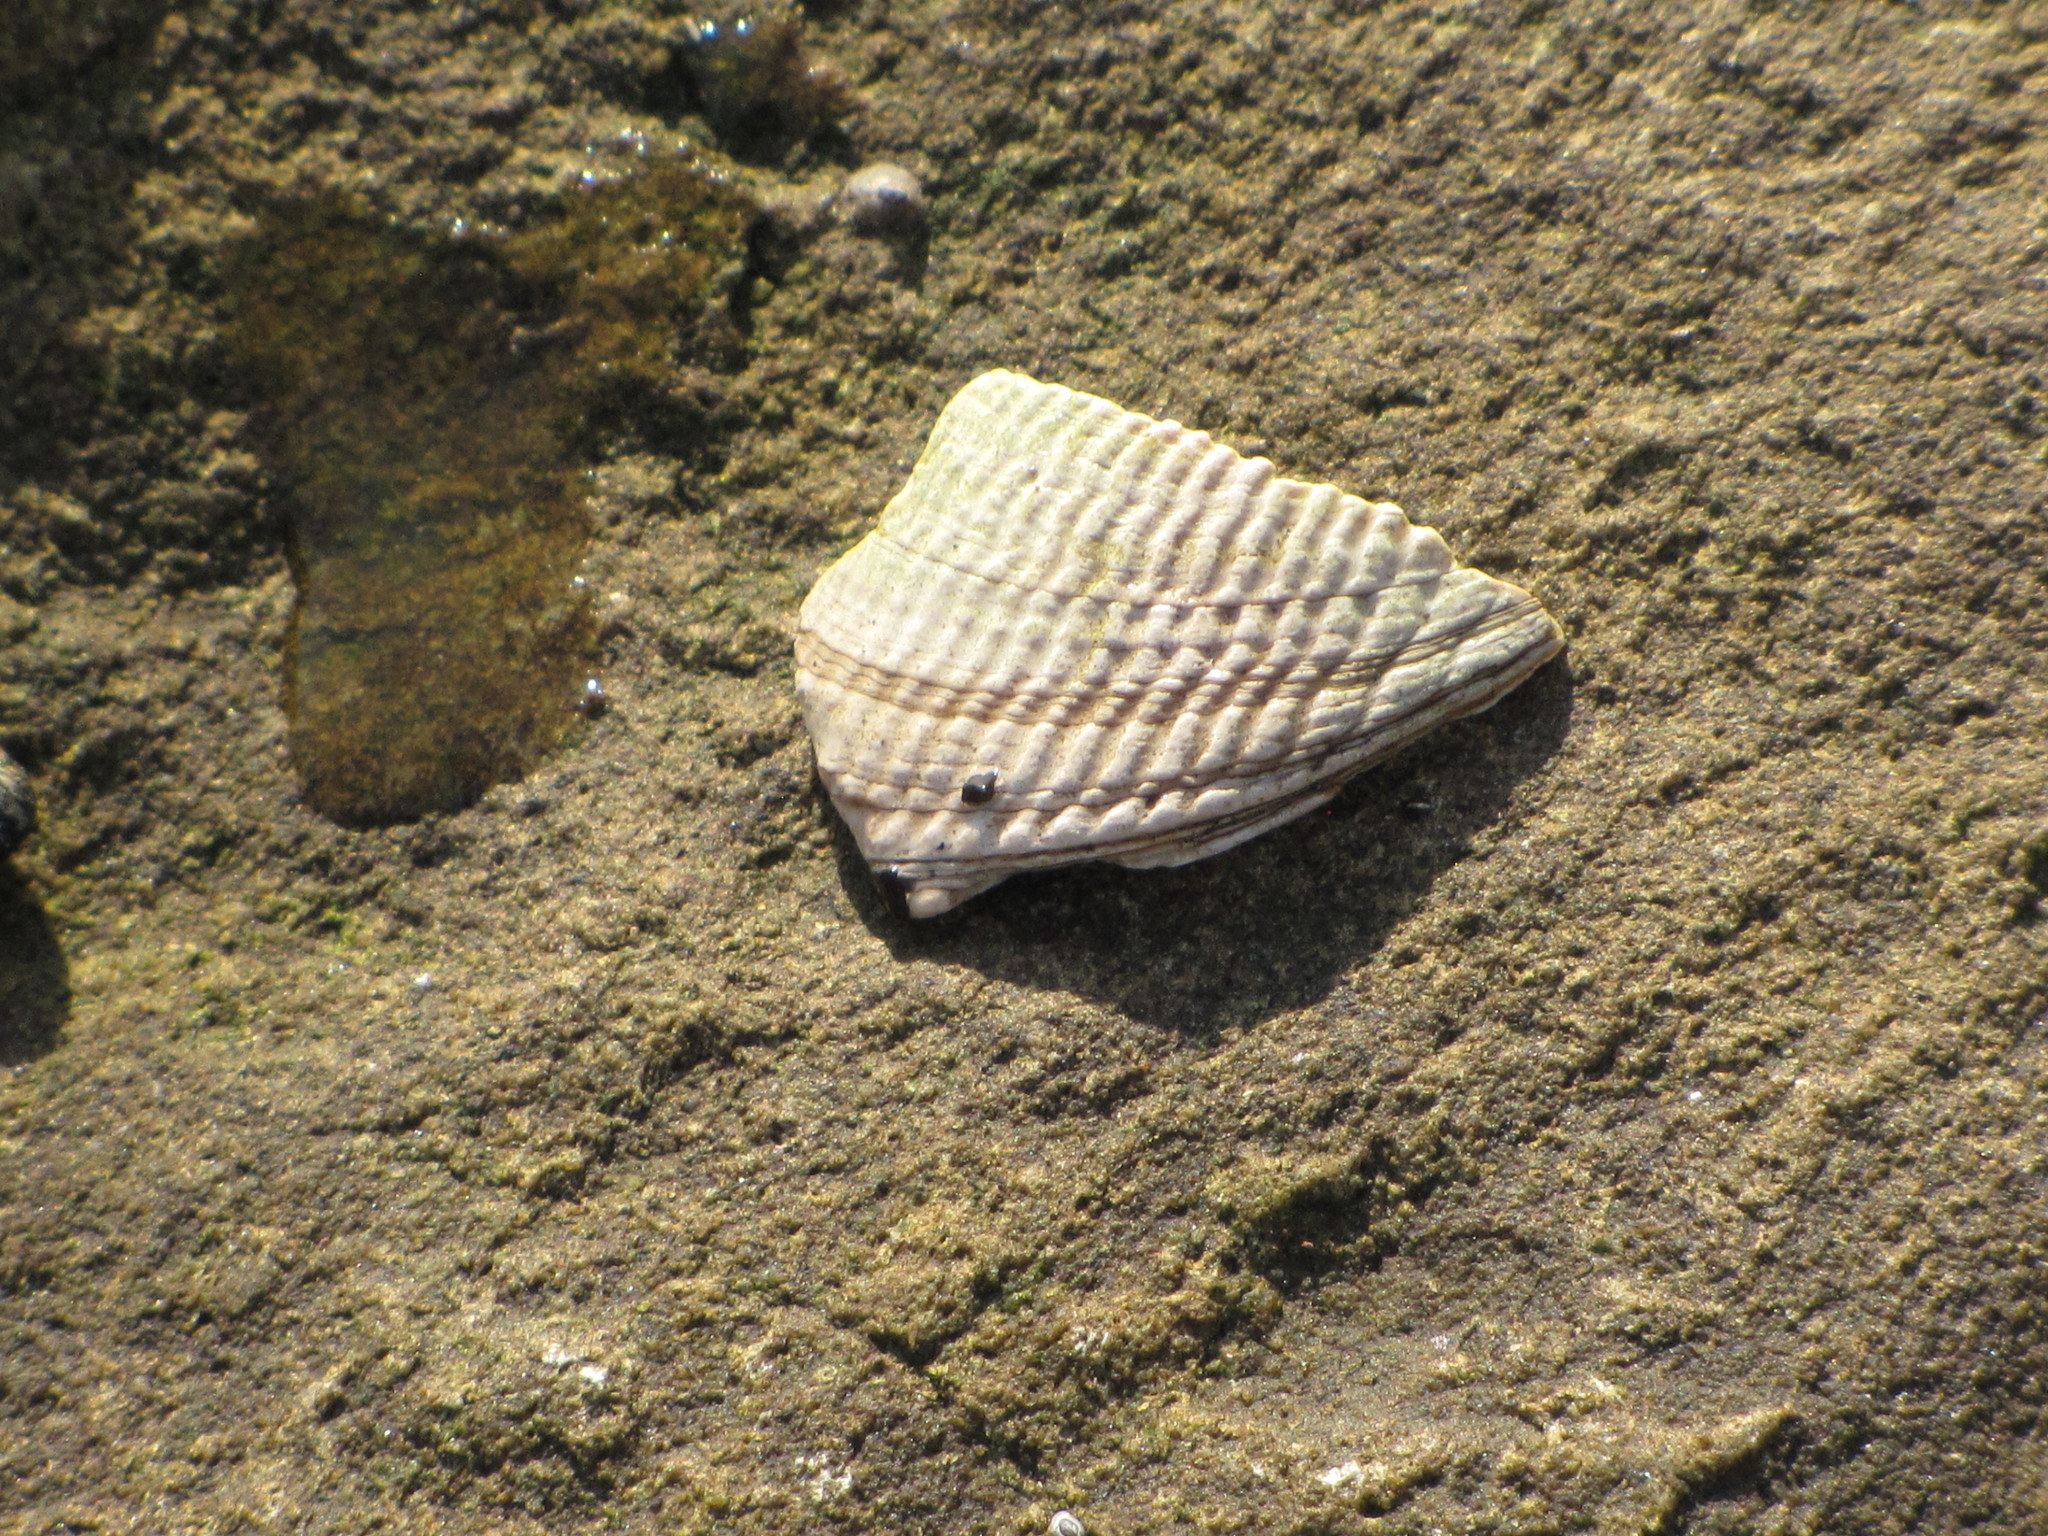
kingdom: Animalia
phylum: Mollusca
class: Bivalvia
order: Venerida
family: Veneridae
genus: Leukoma
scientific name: Leukoma staminea
